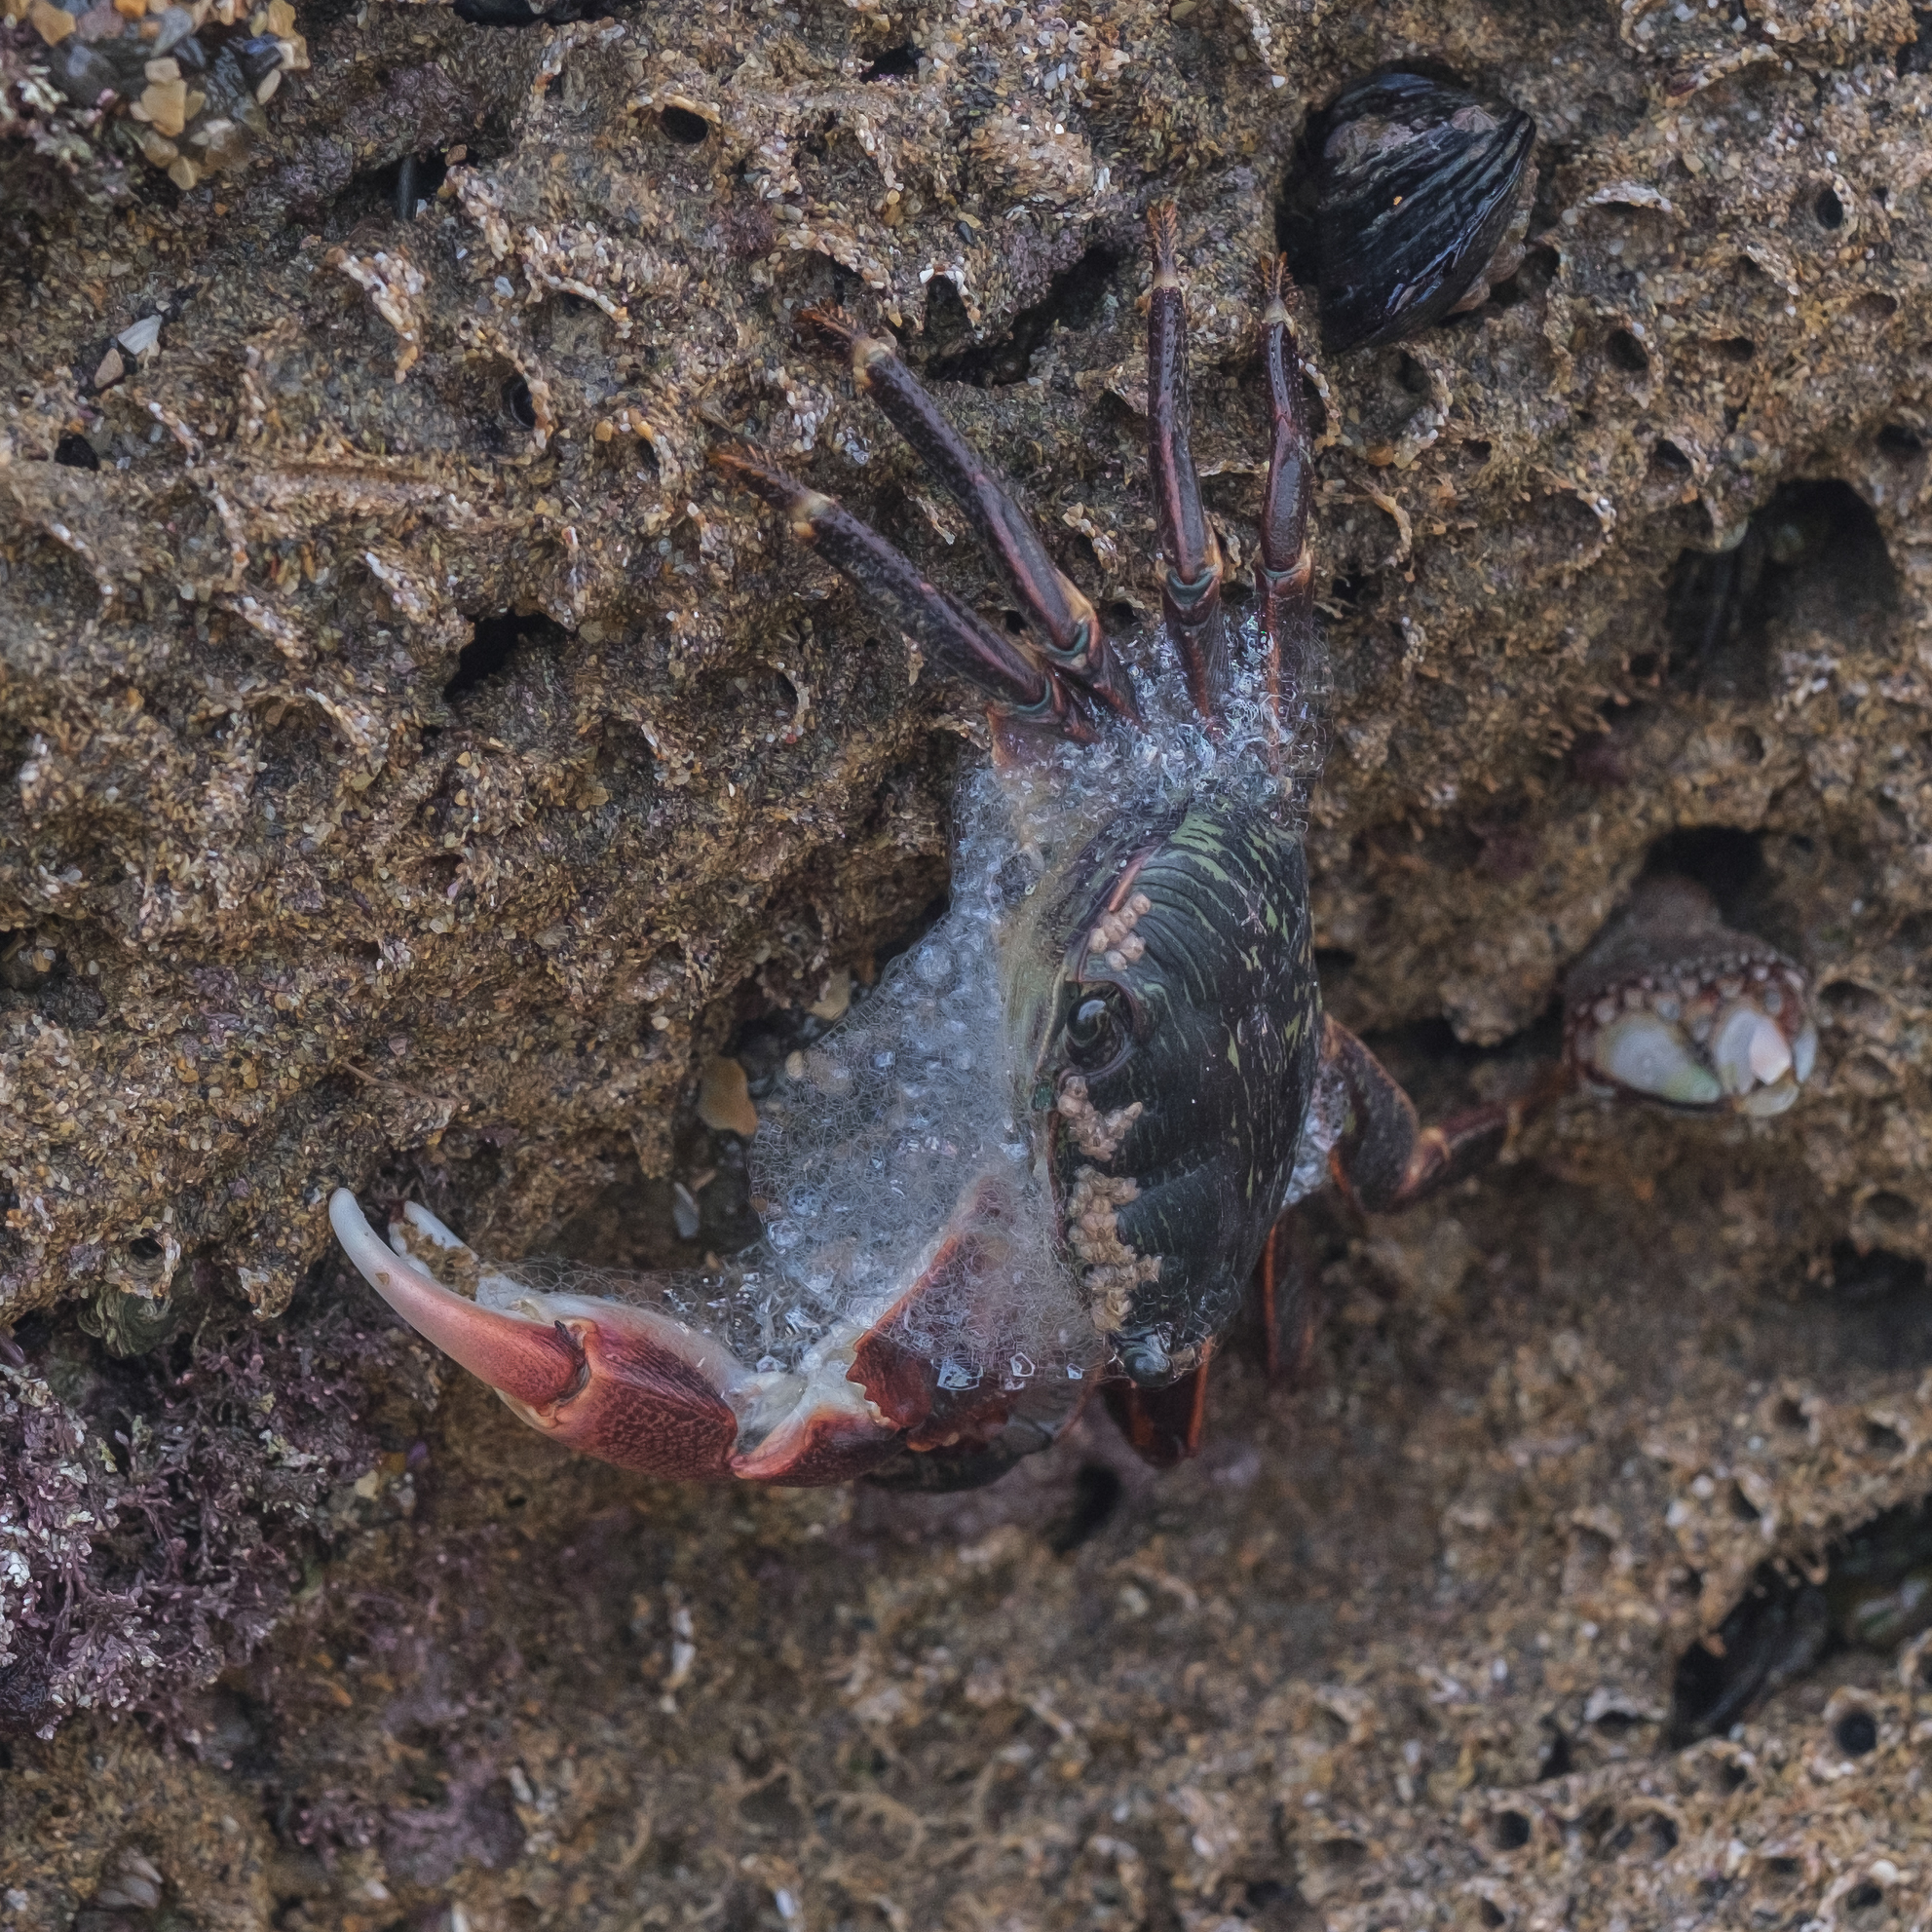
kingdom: Animalia
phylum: Arthropoda
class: Malacostraca
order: Decapoda
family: Grapsidae
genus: Pachygrapsus
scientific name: Pachygrapsus crassipes
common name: Striped shore crab
